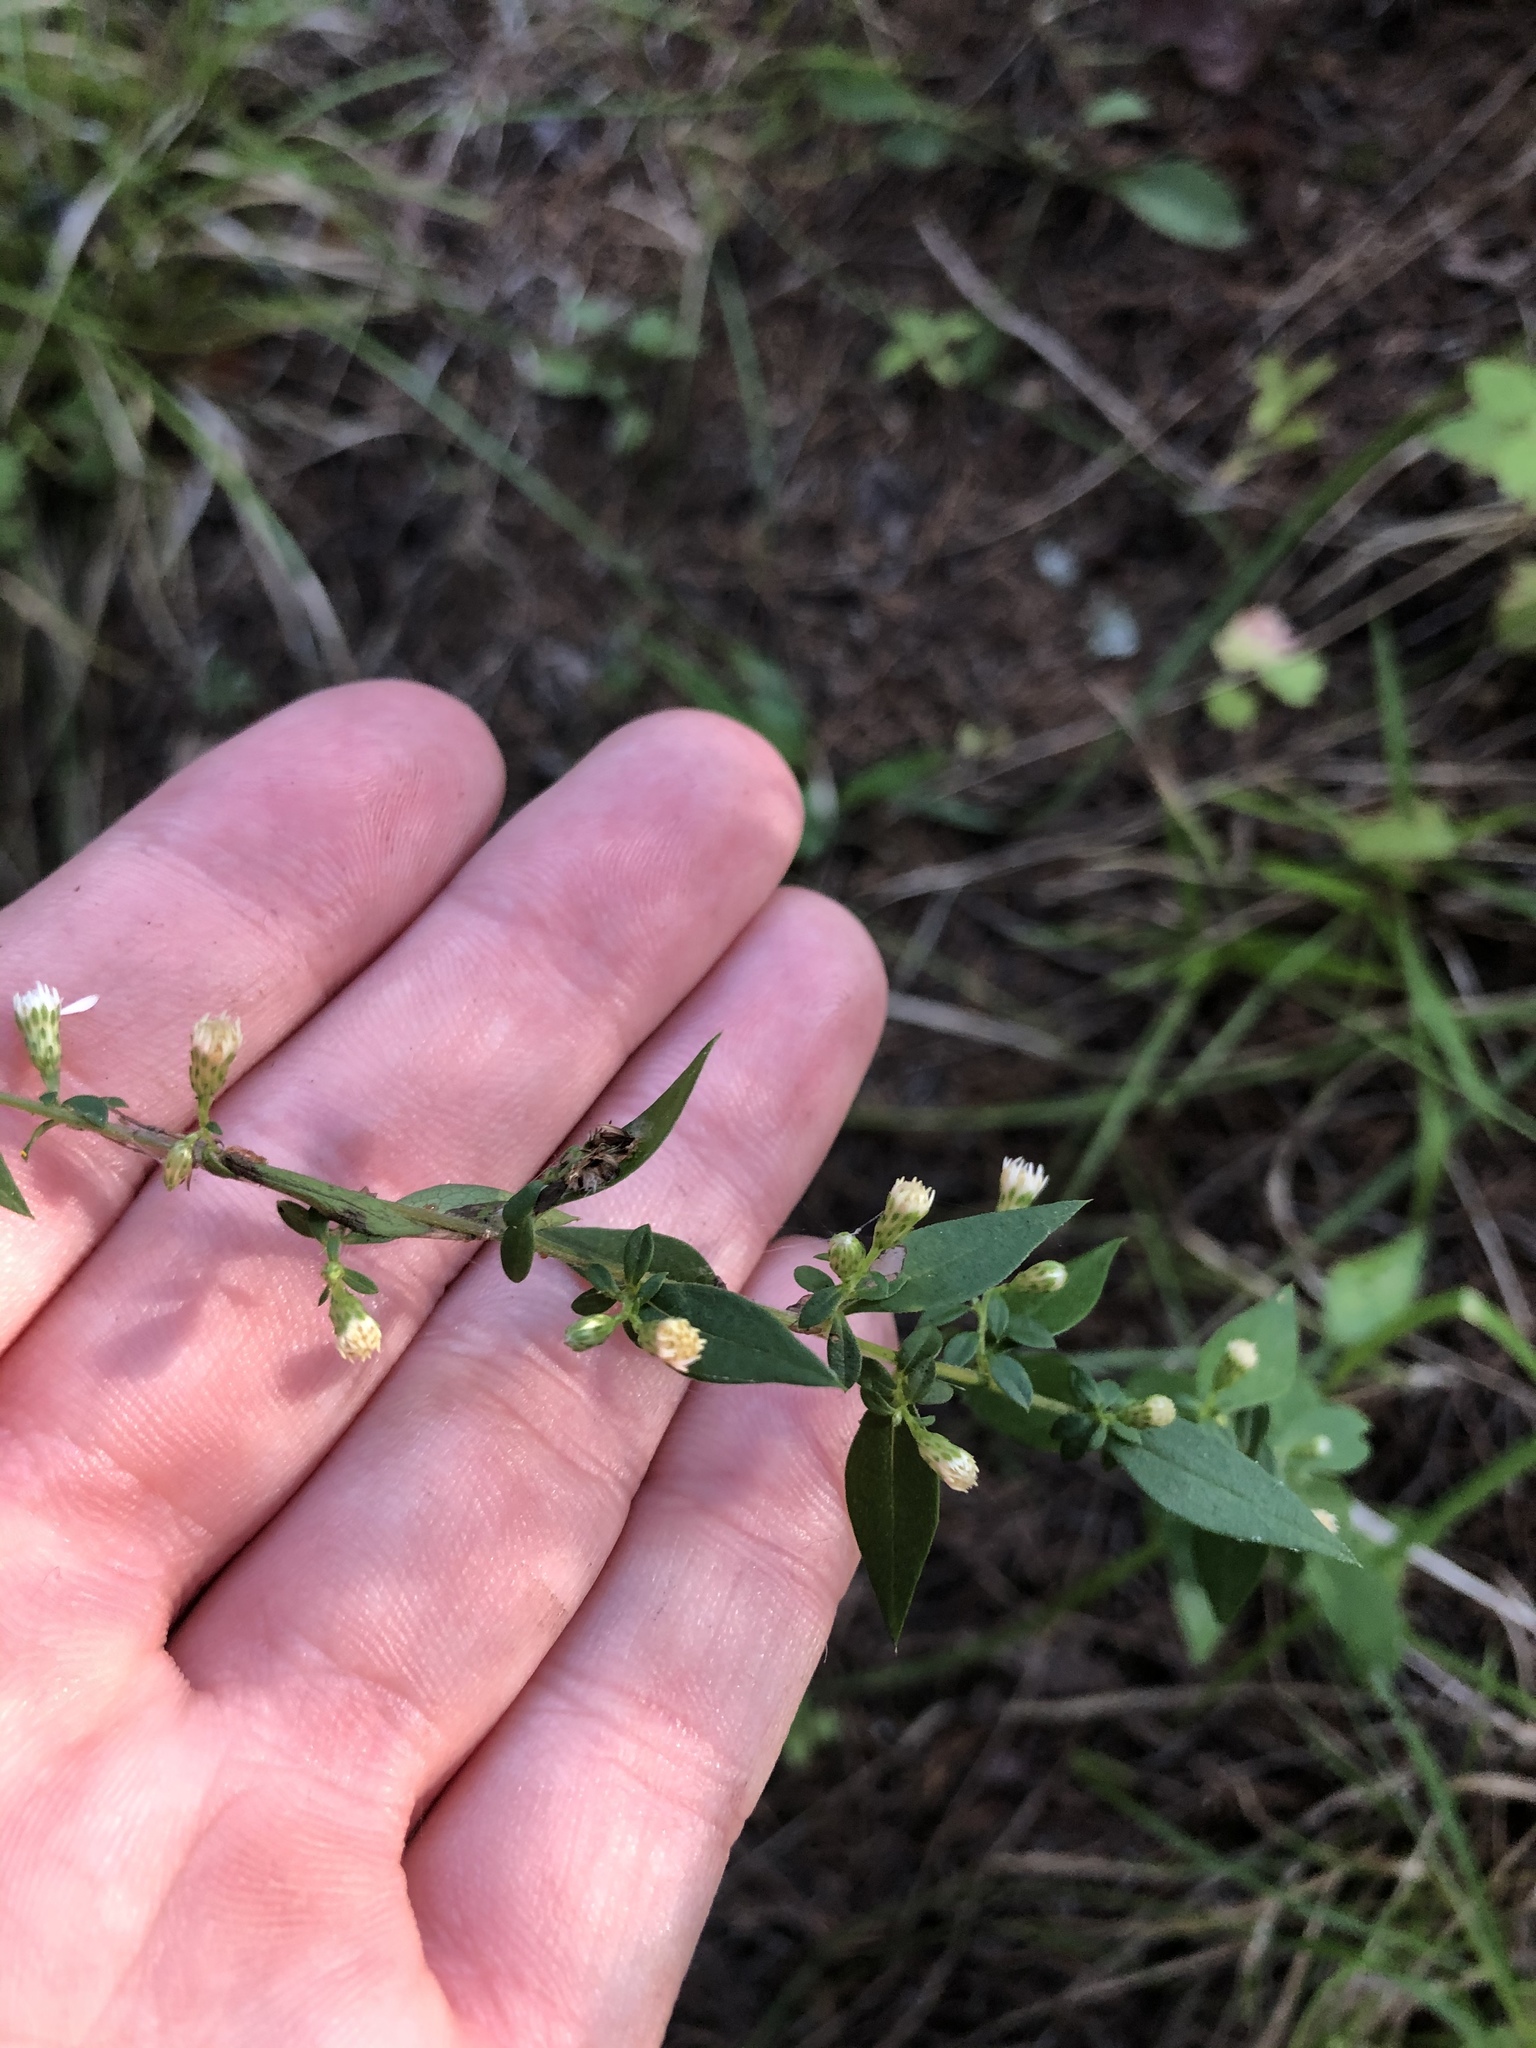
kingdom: Plantae
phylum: Tracheophyta
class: Magnoliopsida
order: Asterales
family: Asteraceae
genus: Symphyotrichum
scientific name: Symphyotrichum lateriflorum
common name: Calico aster
